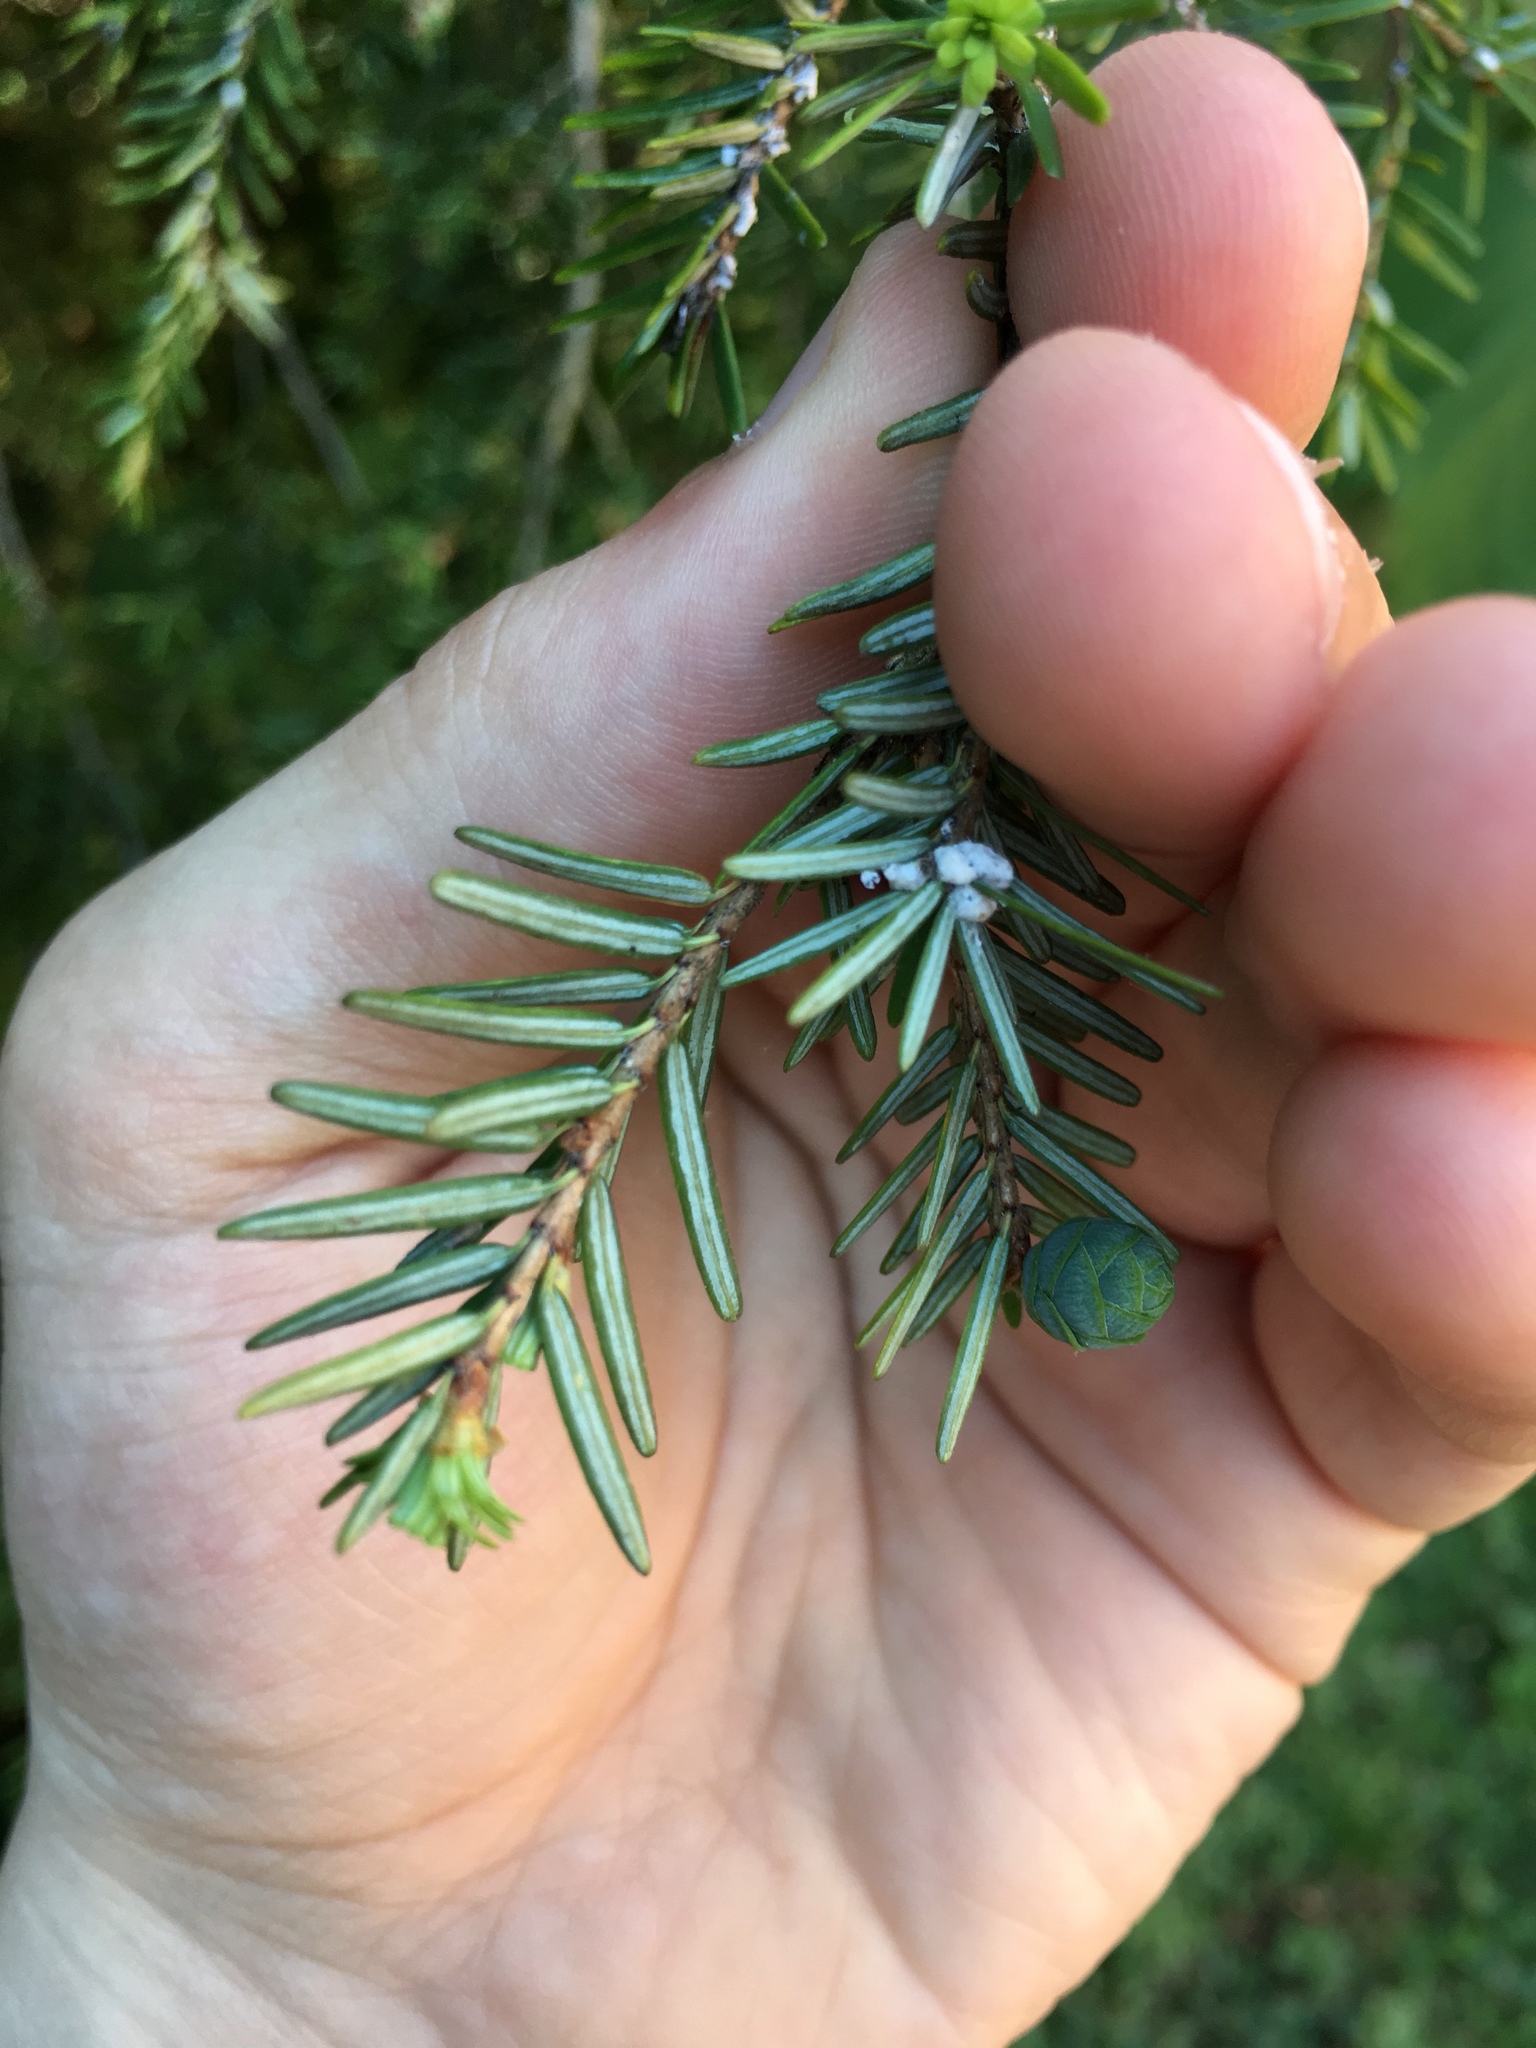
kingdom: Plantae
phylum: Tracheophyta
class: Pinopsida
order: Pinales
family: Pinaceae
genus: Tsuga
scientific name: Tsuga canadensis
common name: Eastern hemlock
